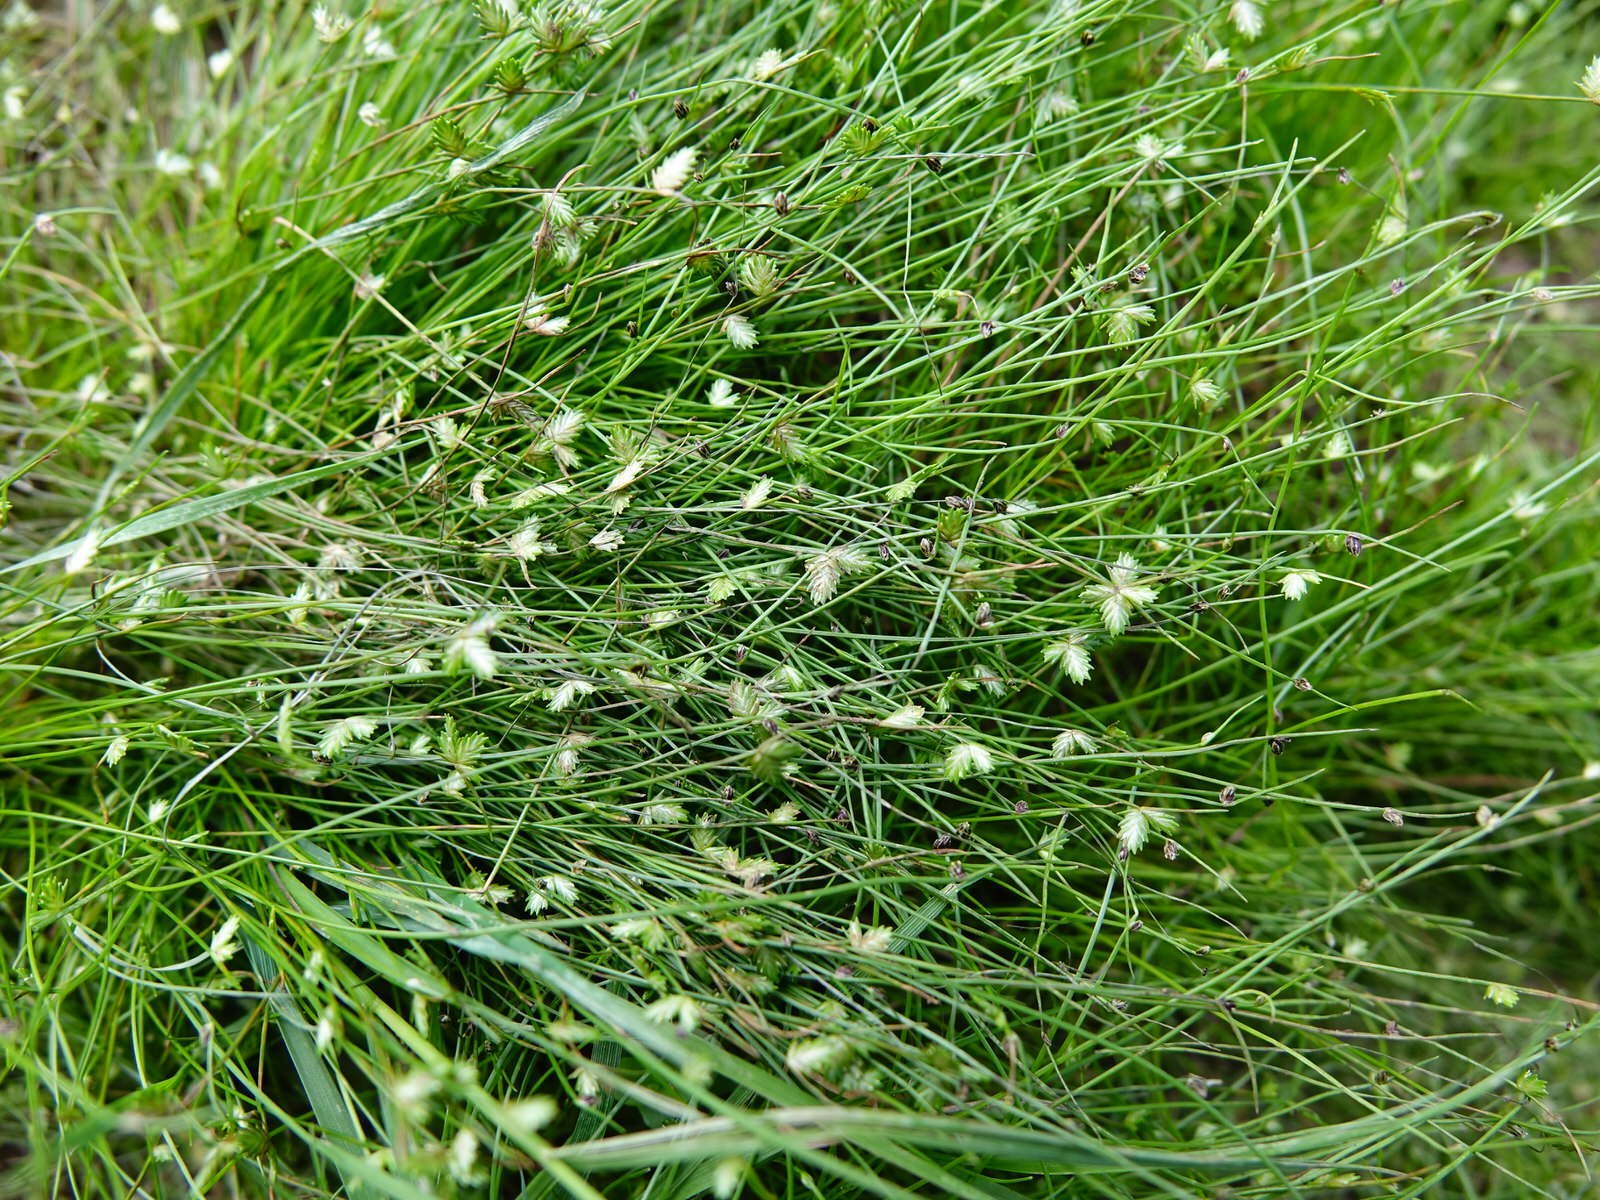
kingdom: Plantae
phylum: Tracheophyta
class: Liliopsida
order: Poales
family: Cyperaceae
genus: Isolepis
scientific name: Isolepis levynsiana
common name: Sedge
